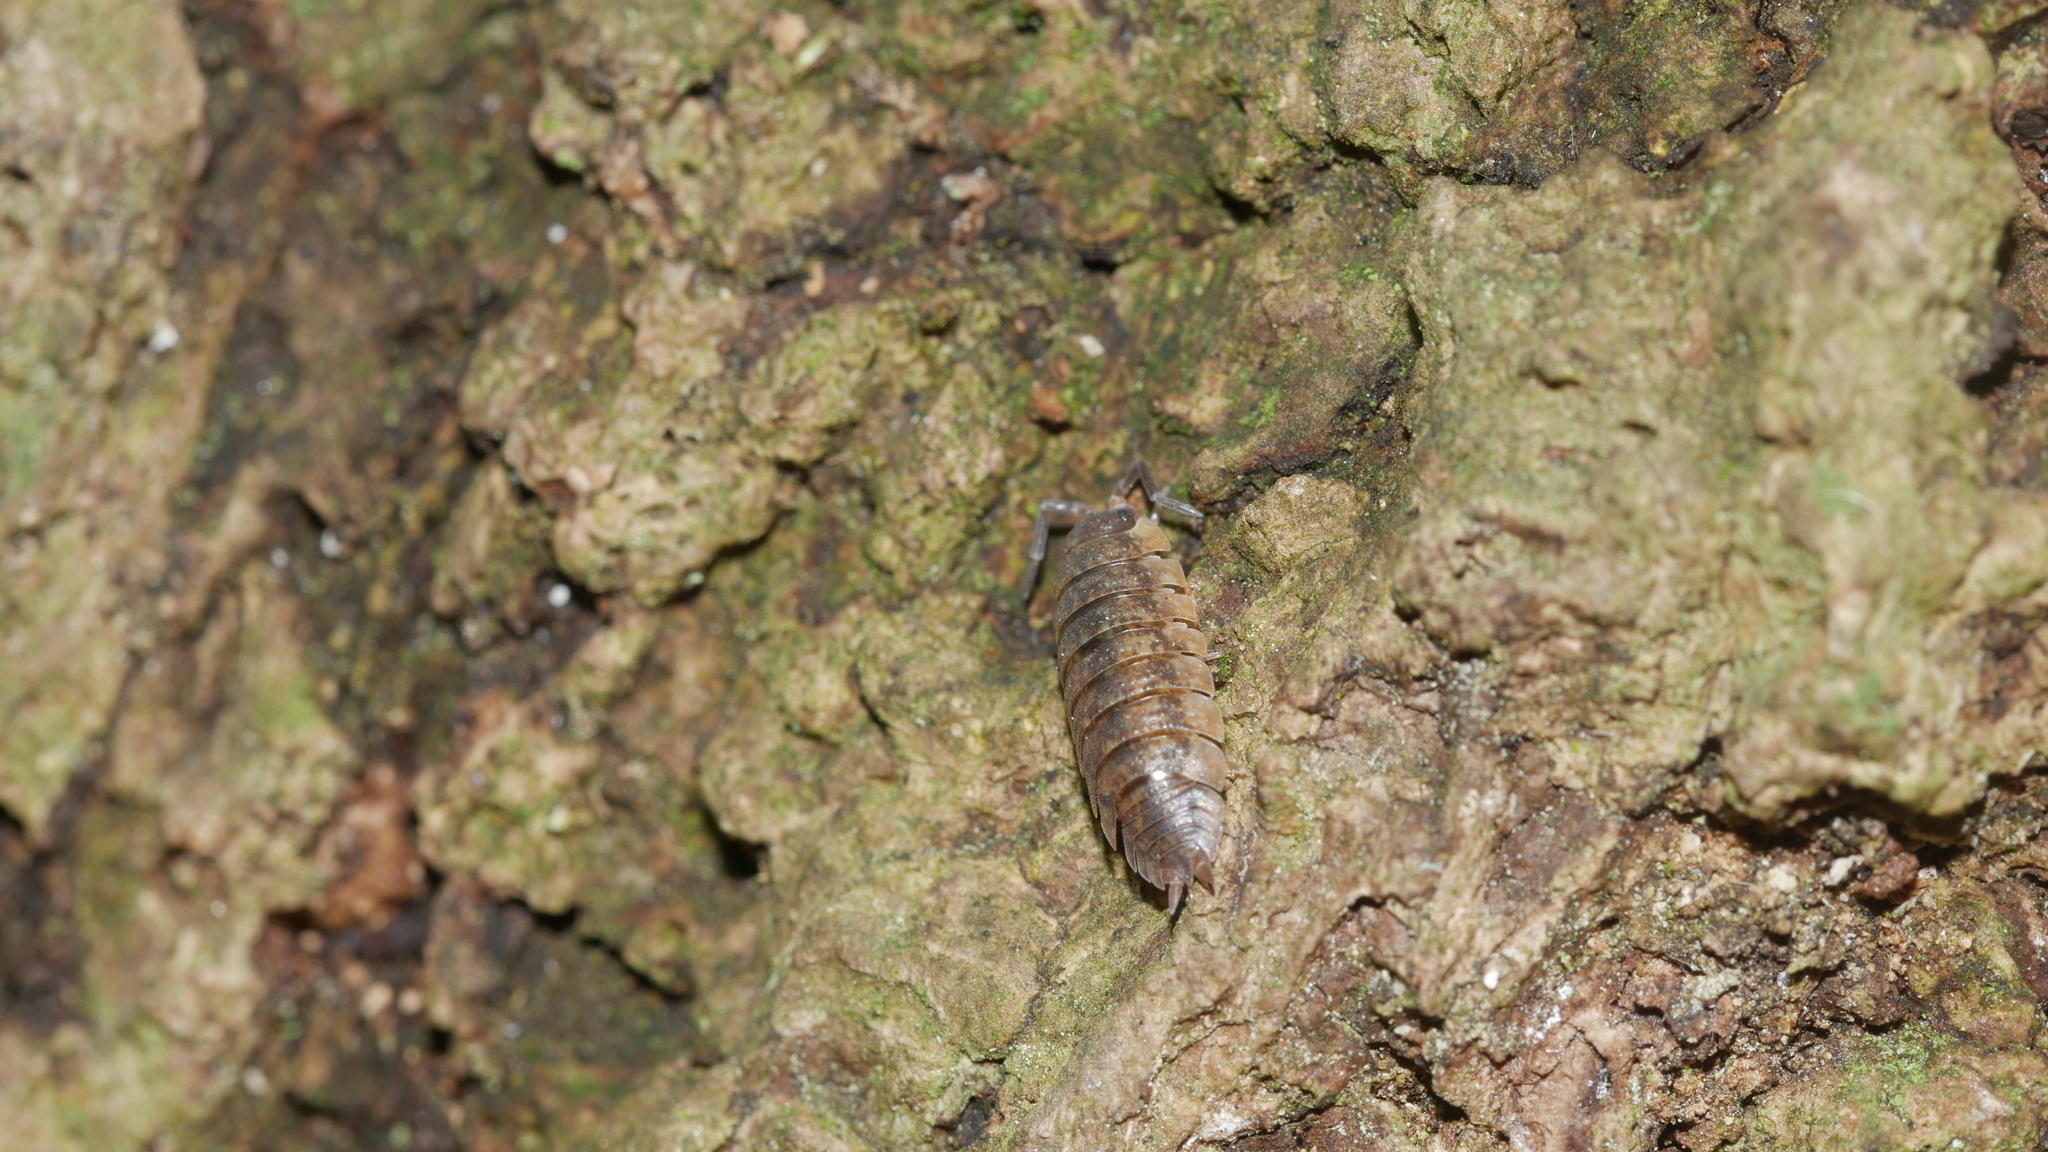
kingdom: Animalia
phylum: Arthropoda
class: Malacostraca
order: Isopoda
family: Porcellionidae
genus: Porcellio
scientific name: Porcellio scaber
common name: Common rough woodlouse
